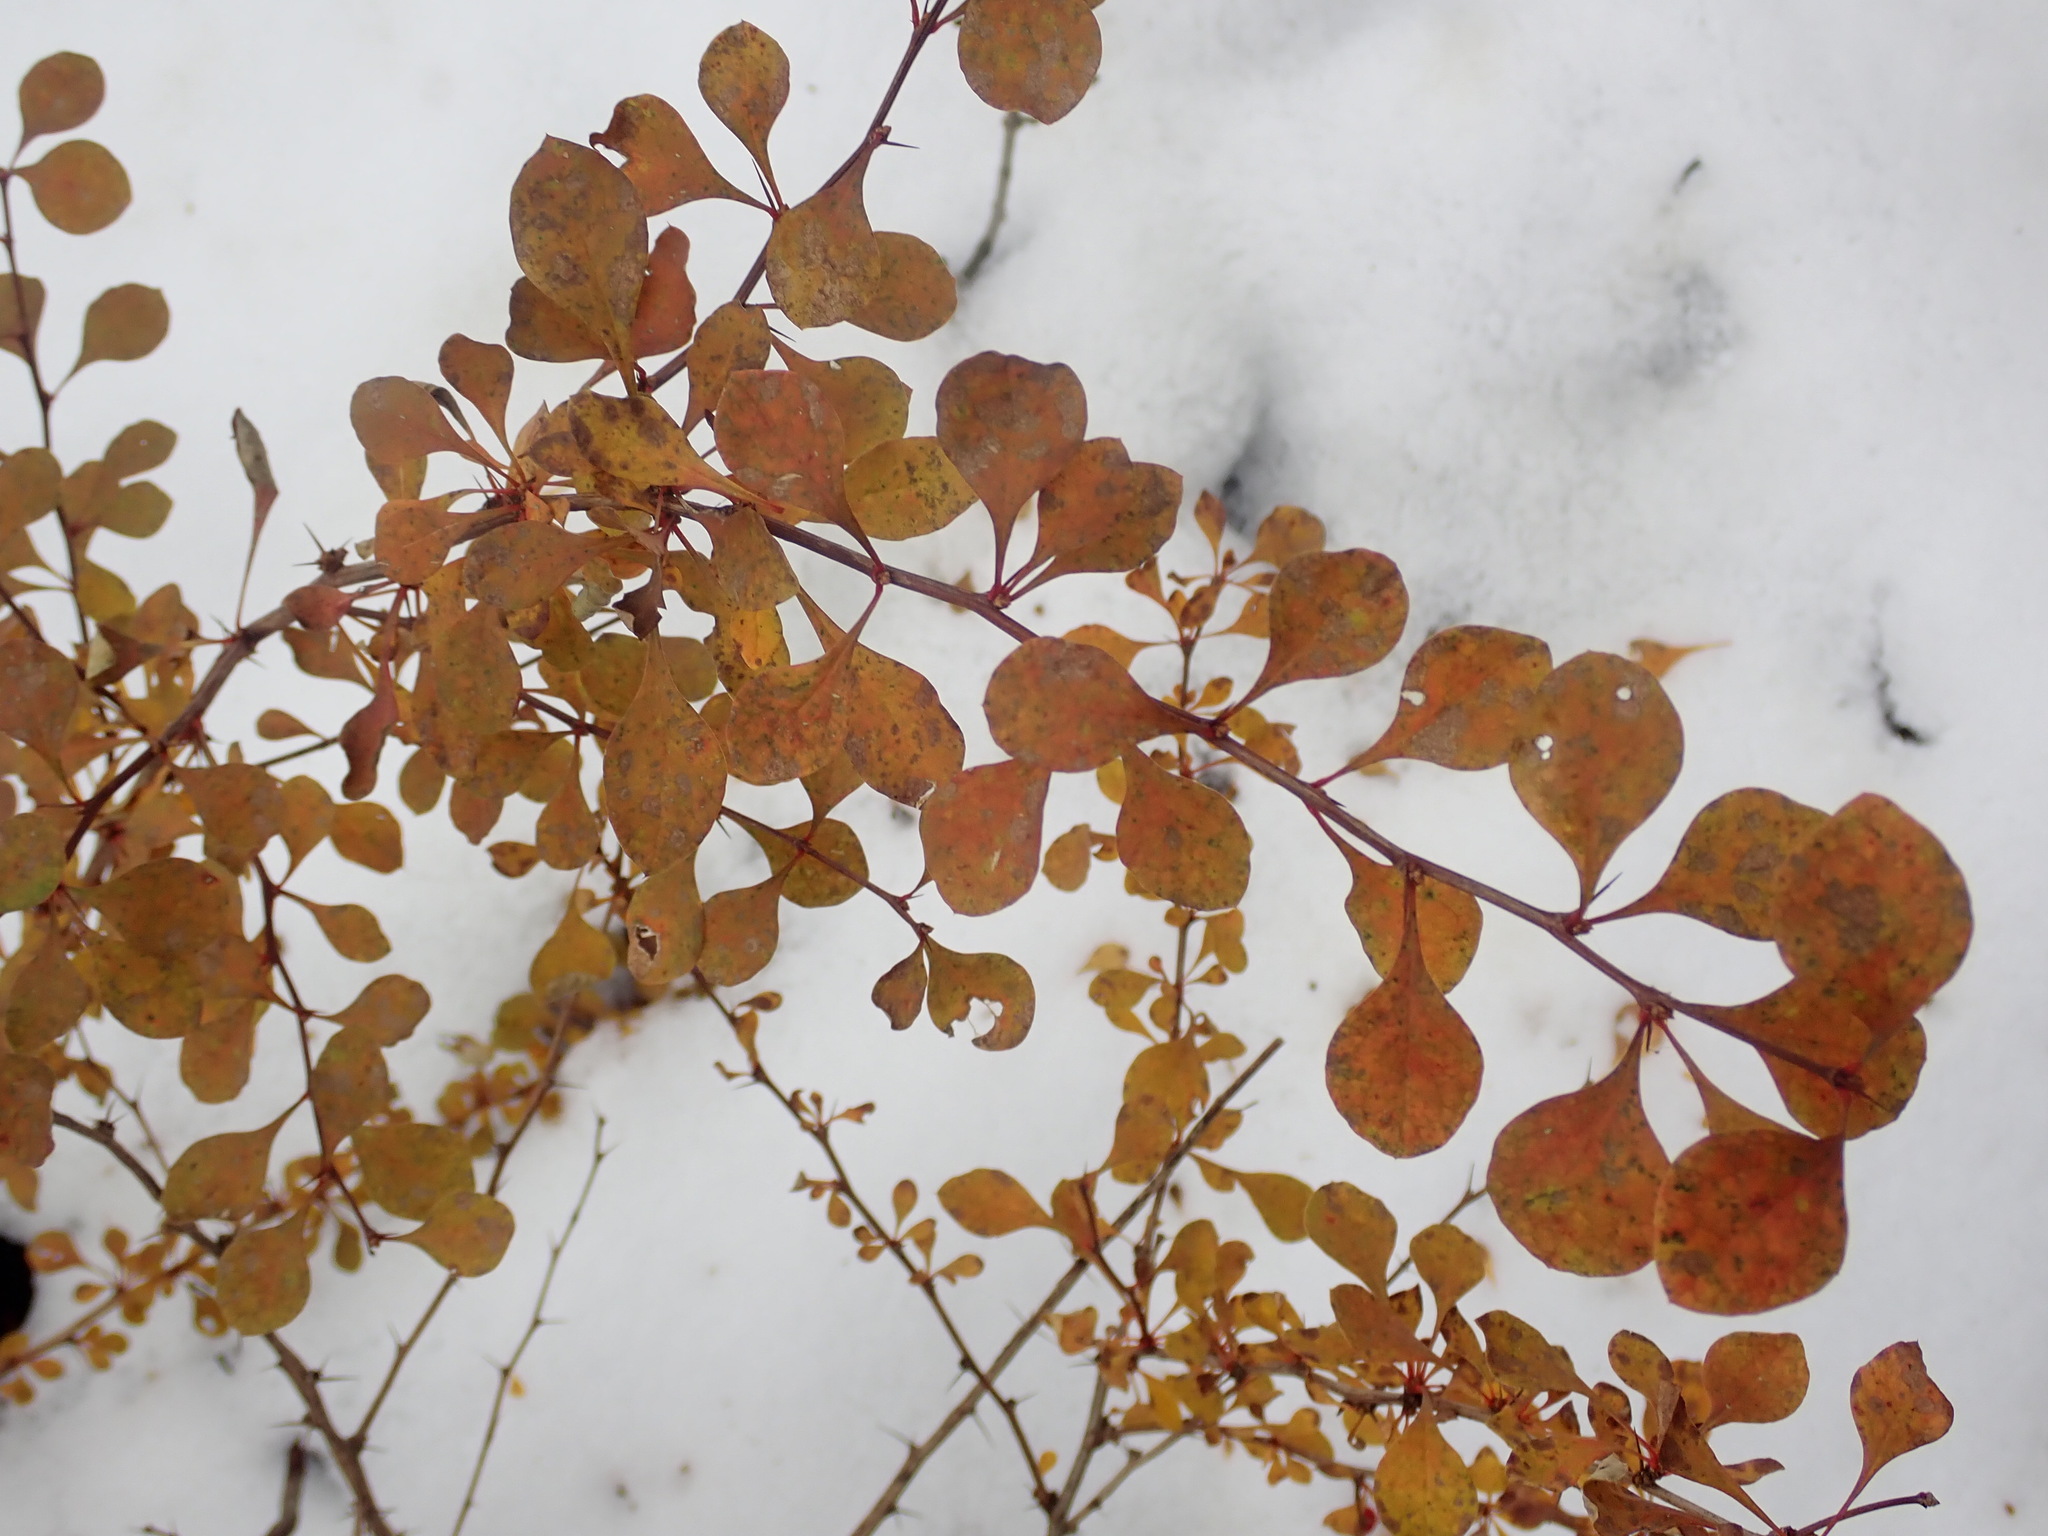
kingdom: Plantae
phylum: Tracheophyta
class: Magnoliopsida
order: Ranunculales
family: Berberidaceae
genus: Berberis
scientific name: Berberis thunbergii
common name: Japanese barberry
